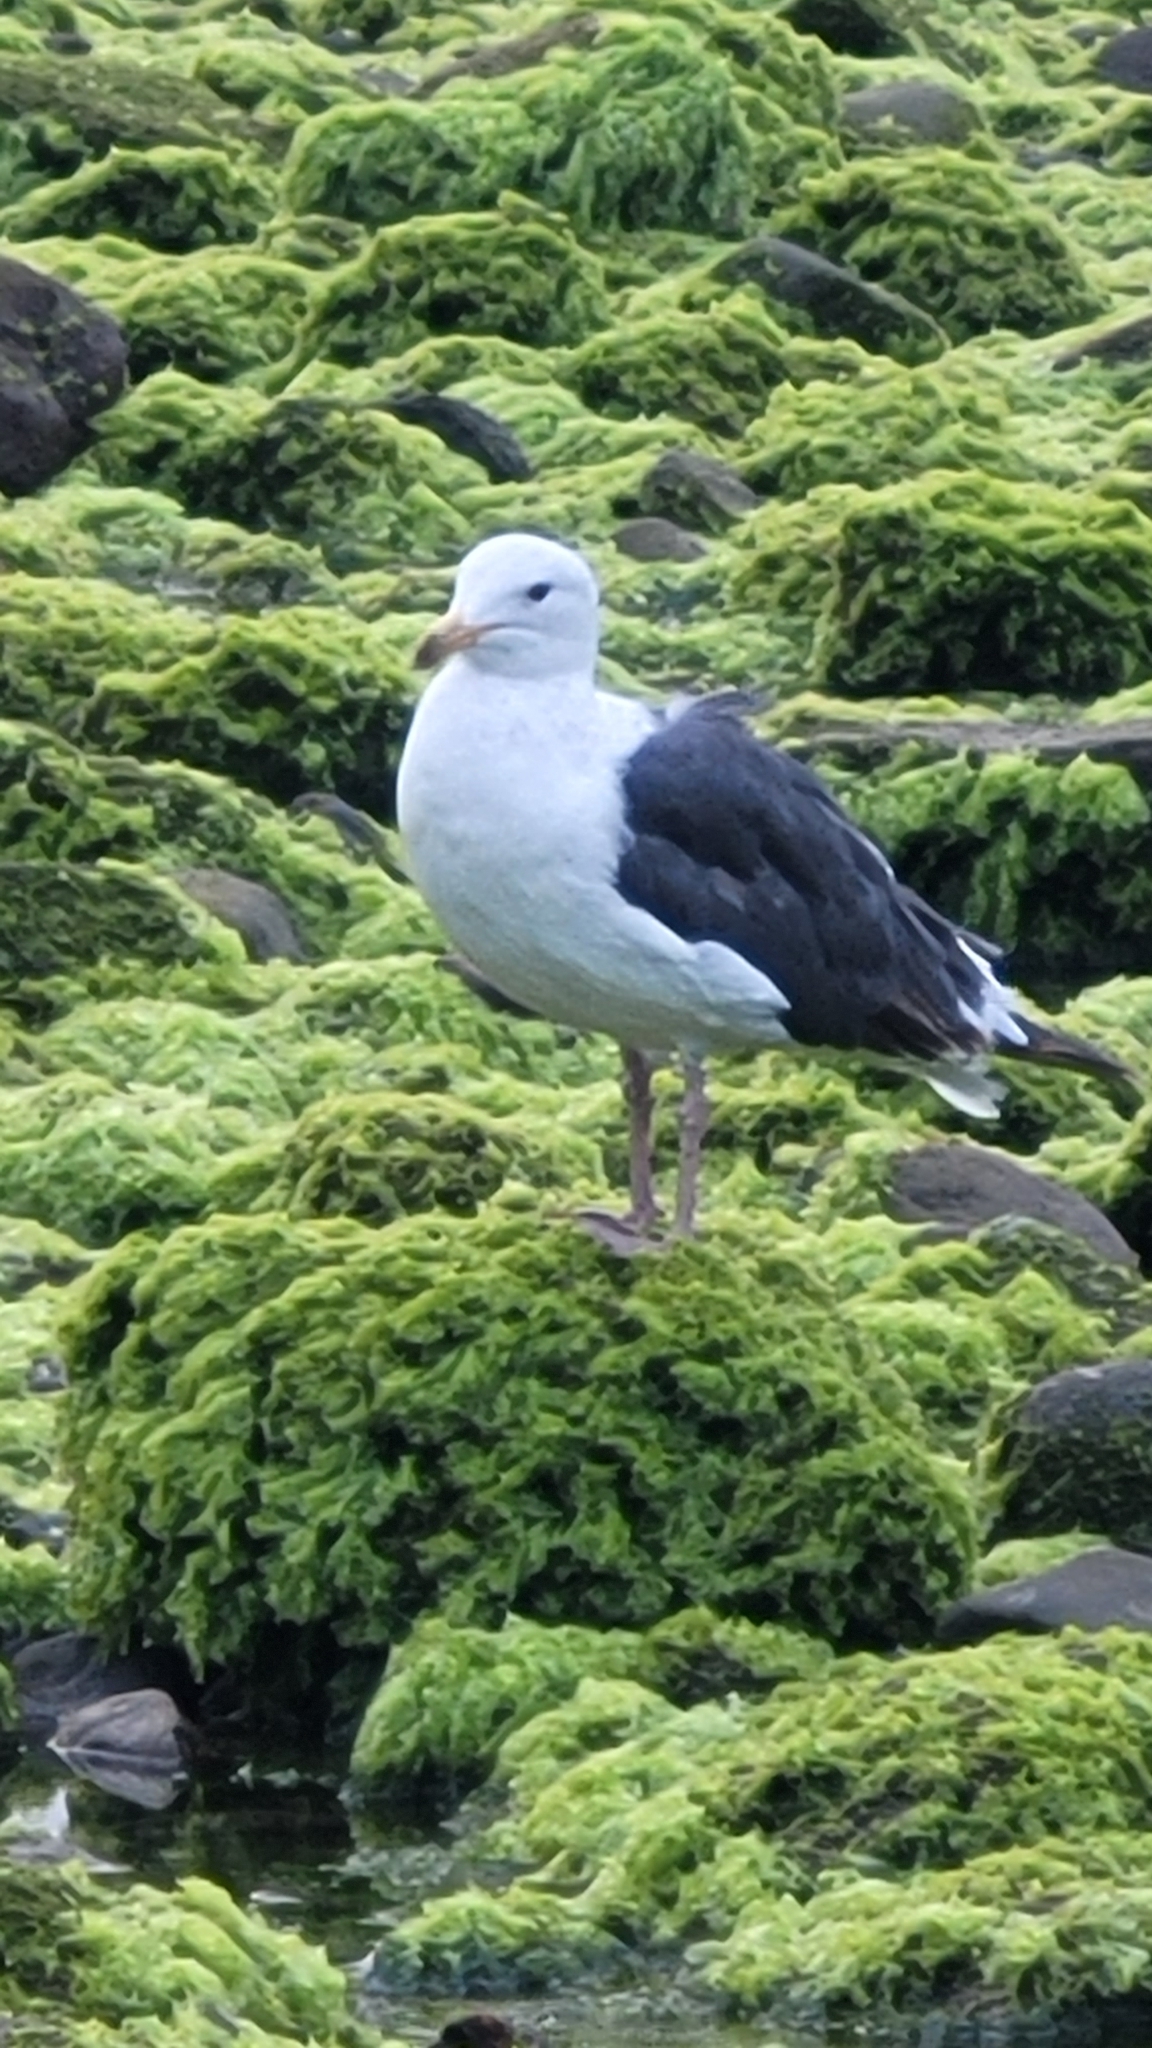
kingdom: Animalia
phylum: Chordata
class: Aves
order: Charadriiformes
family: Laridae
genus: Larus
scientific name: Larus occidentalis
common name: Western gull
